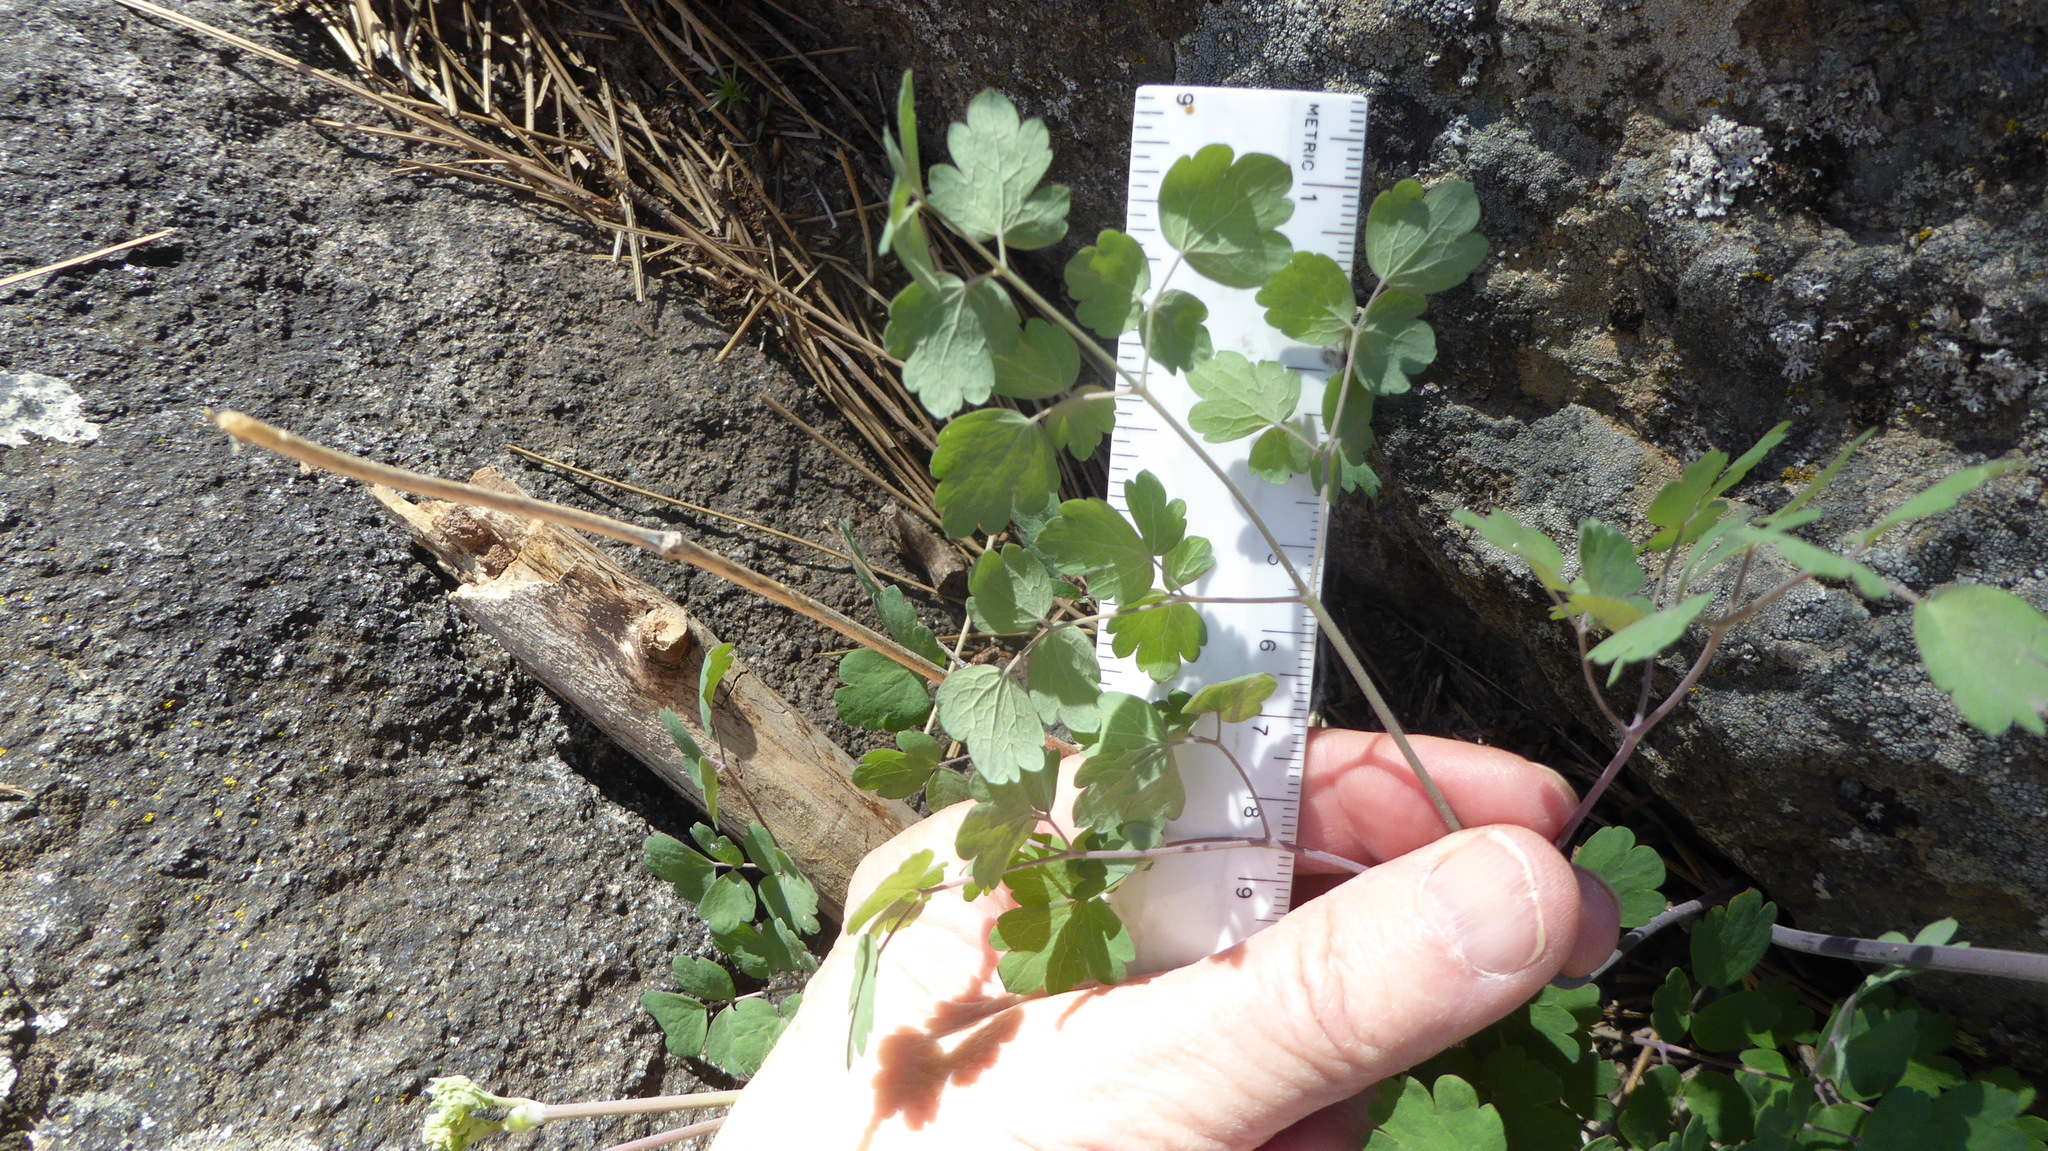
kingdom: Plantae
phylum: Tracheophyta
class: Magnoliopsida
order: Ranunculales
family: Ranunculaceae
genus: Thalictrum
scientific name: Thalictrum fendleri
